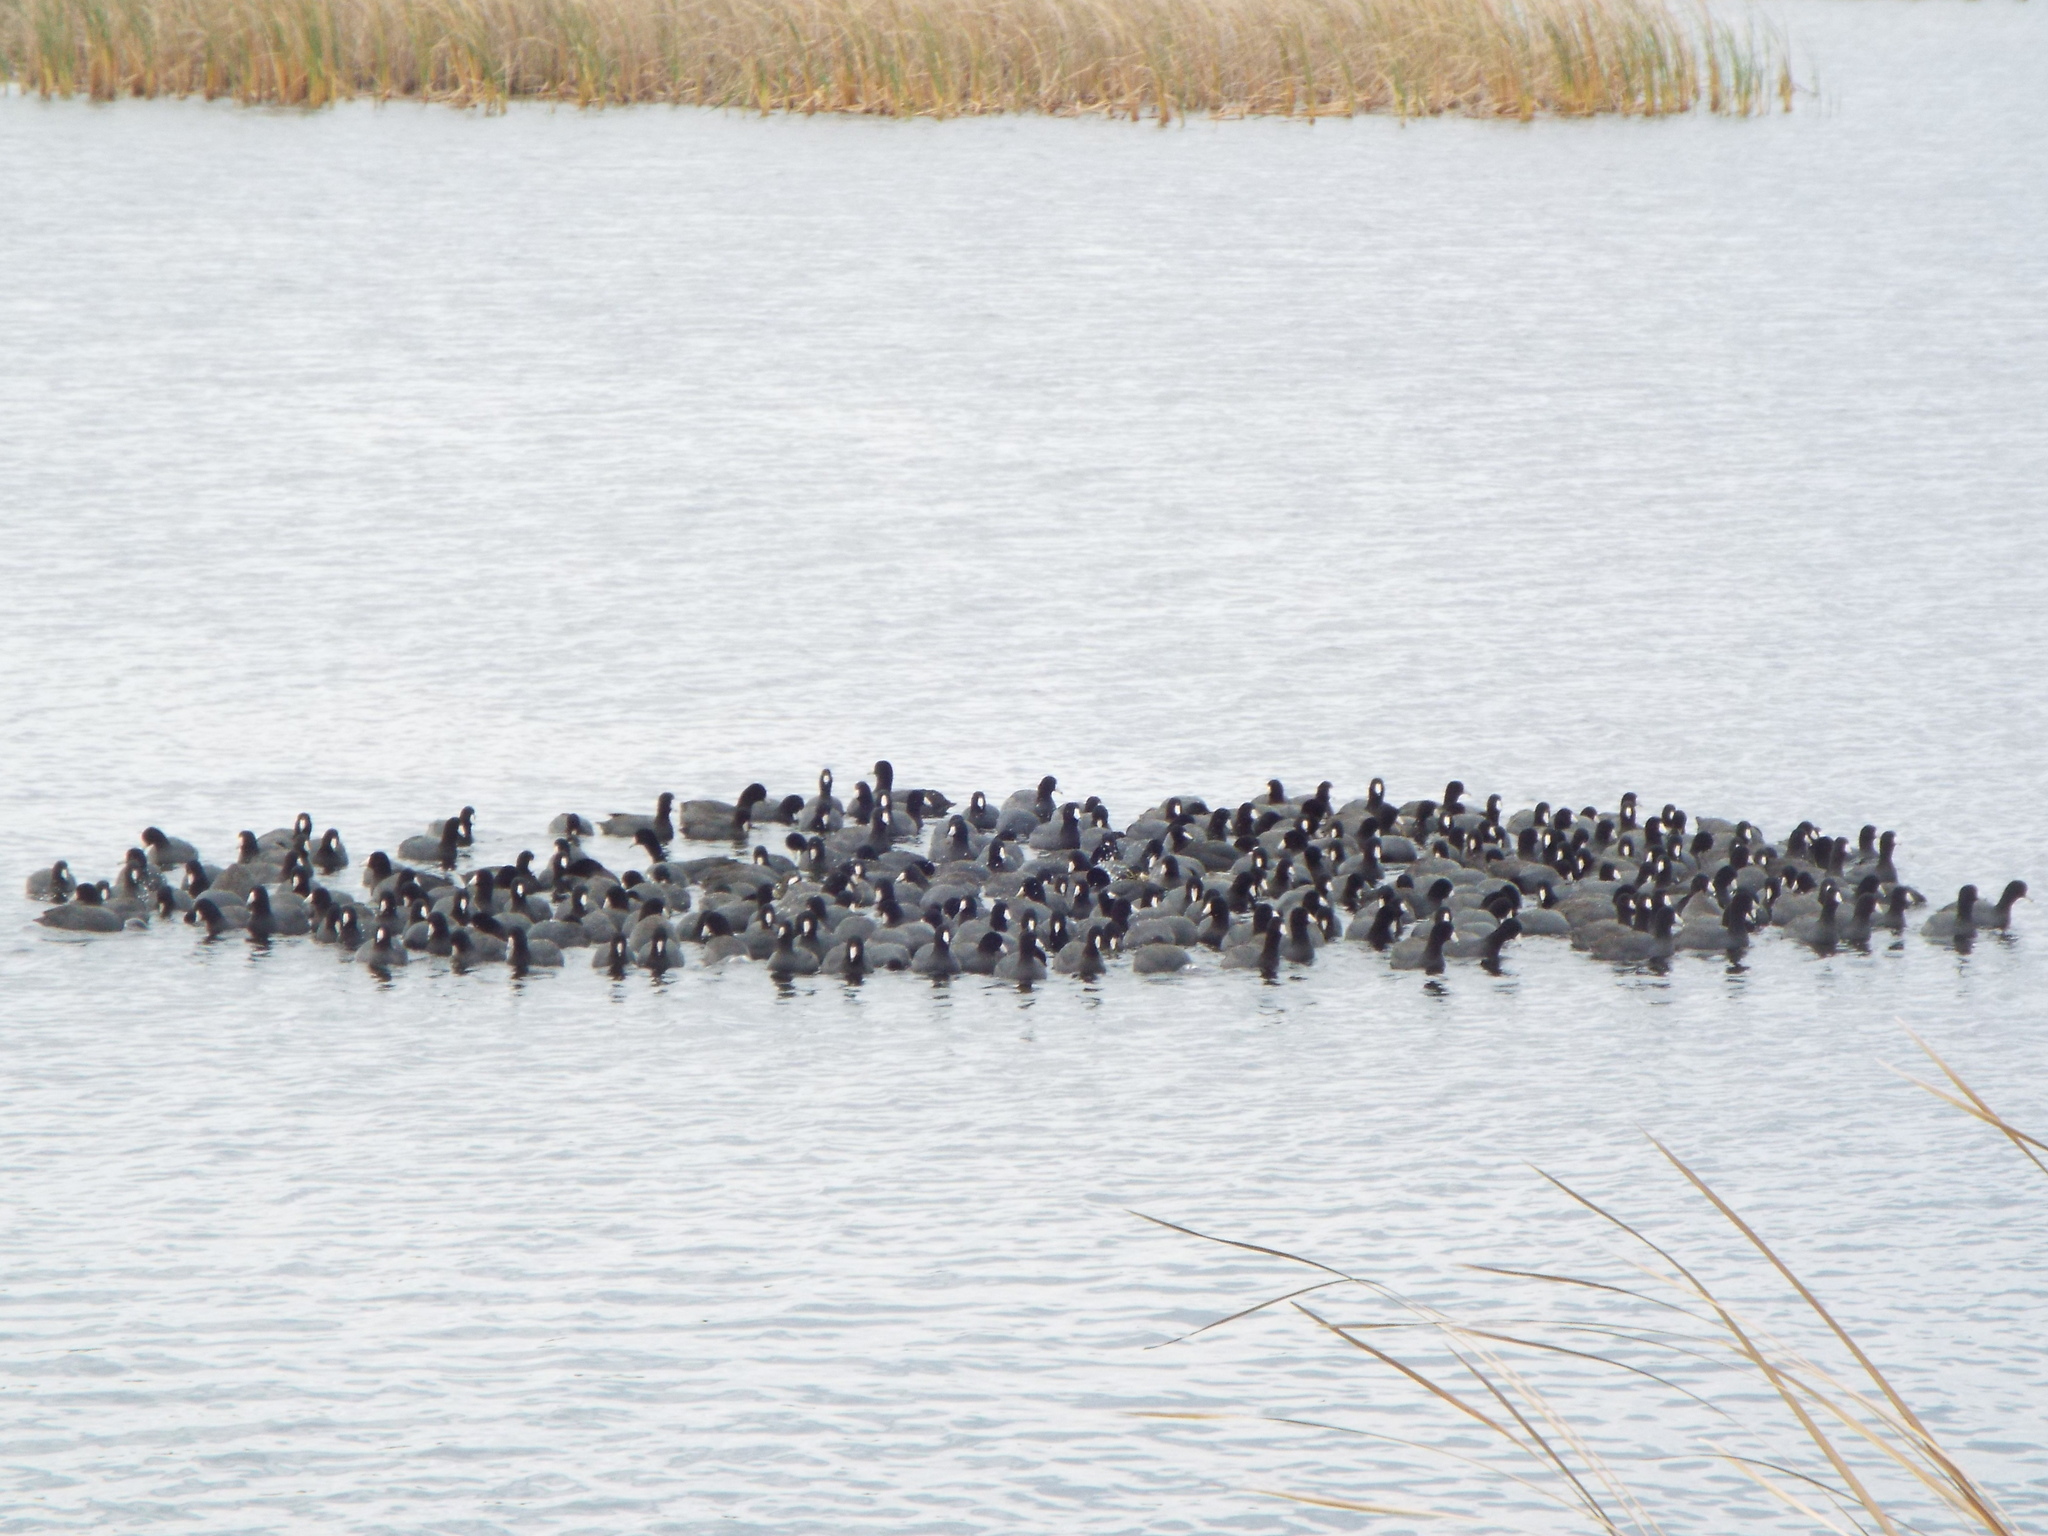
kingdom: Animalia
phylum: Chordata
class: Aves
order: Gruiformes
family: Rallidae
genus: Fulica
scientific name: Fulica americana
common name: American coot
